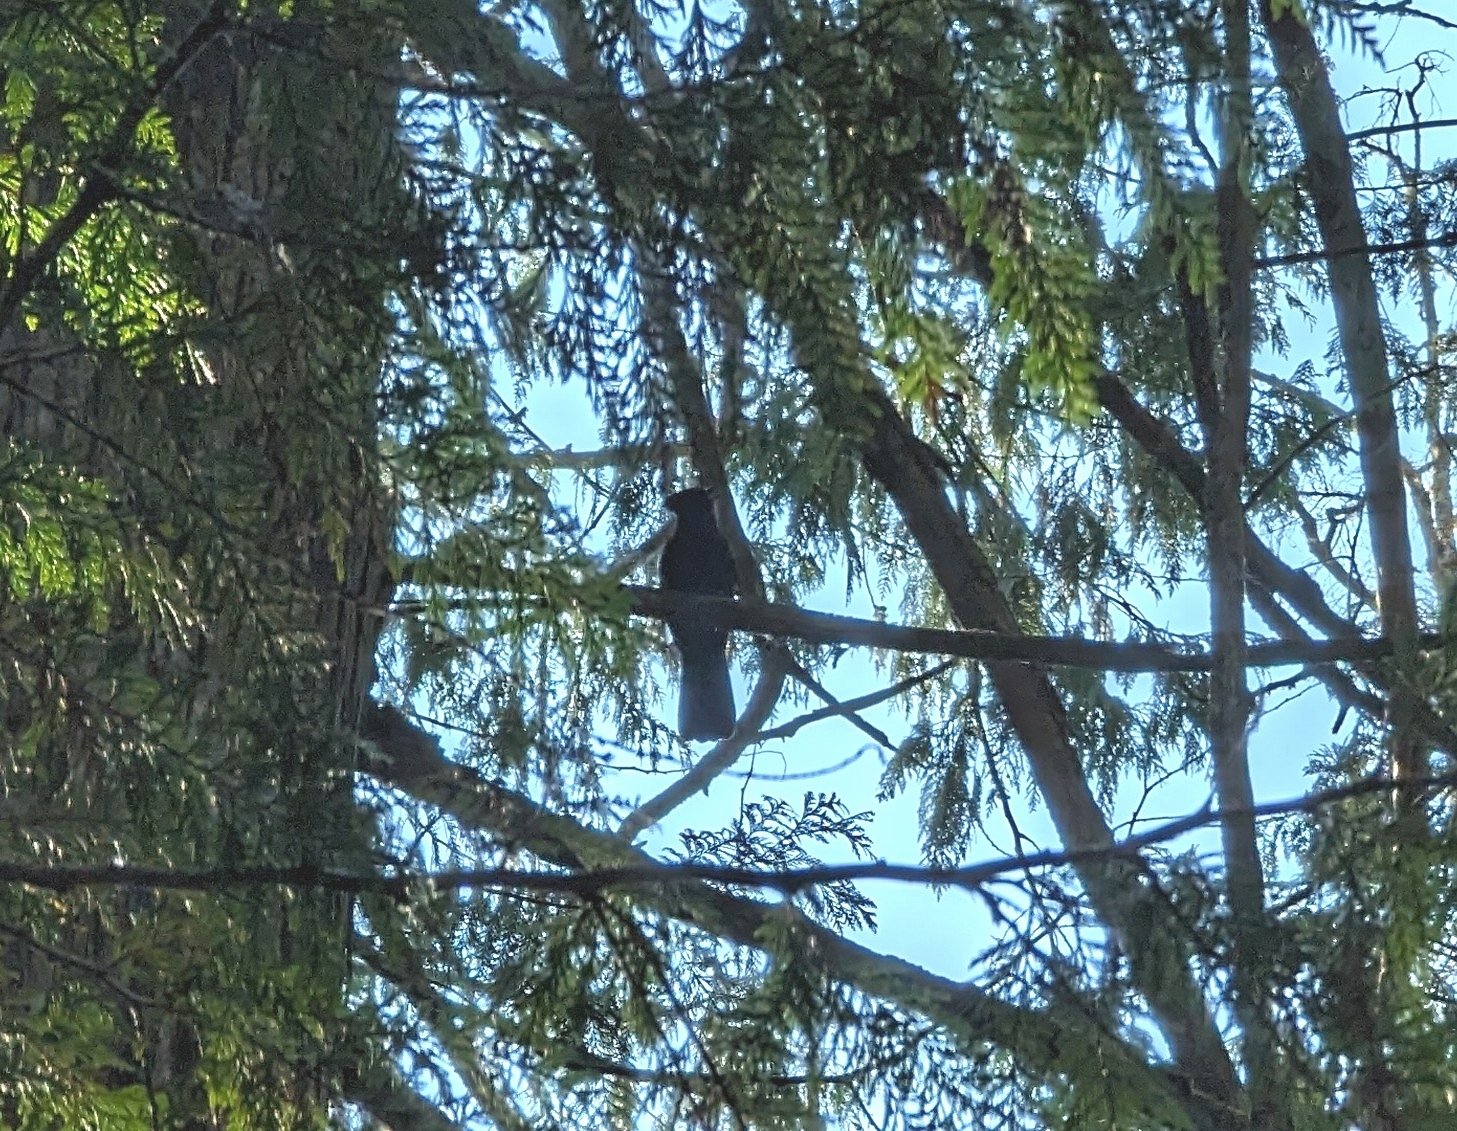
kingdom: Animalia
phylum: Chordata
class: Aves
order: Passeriformes
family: Corvidae
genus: Cyanocitta
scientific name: Cyanocitta stelleri
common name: Steller's jay
